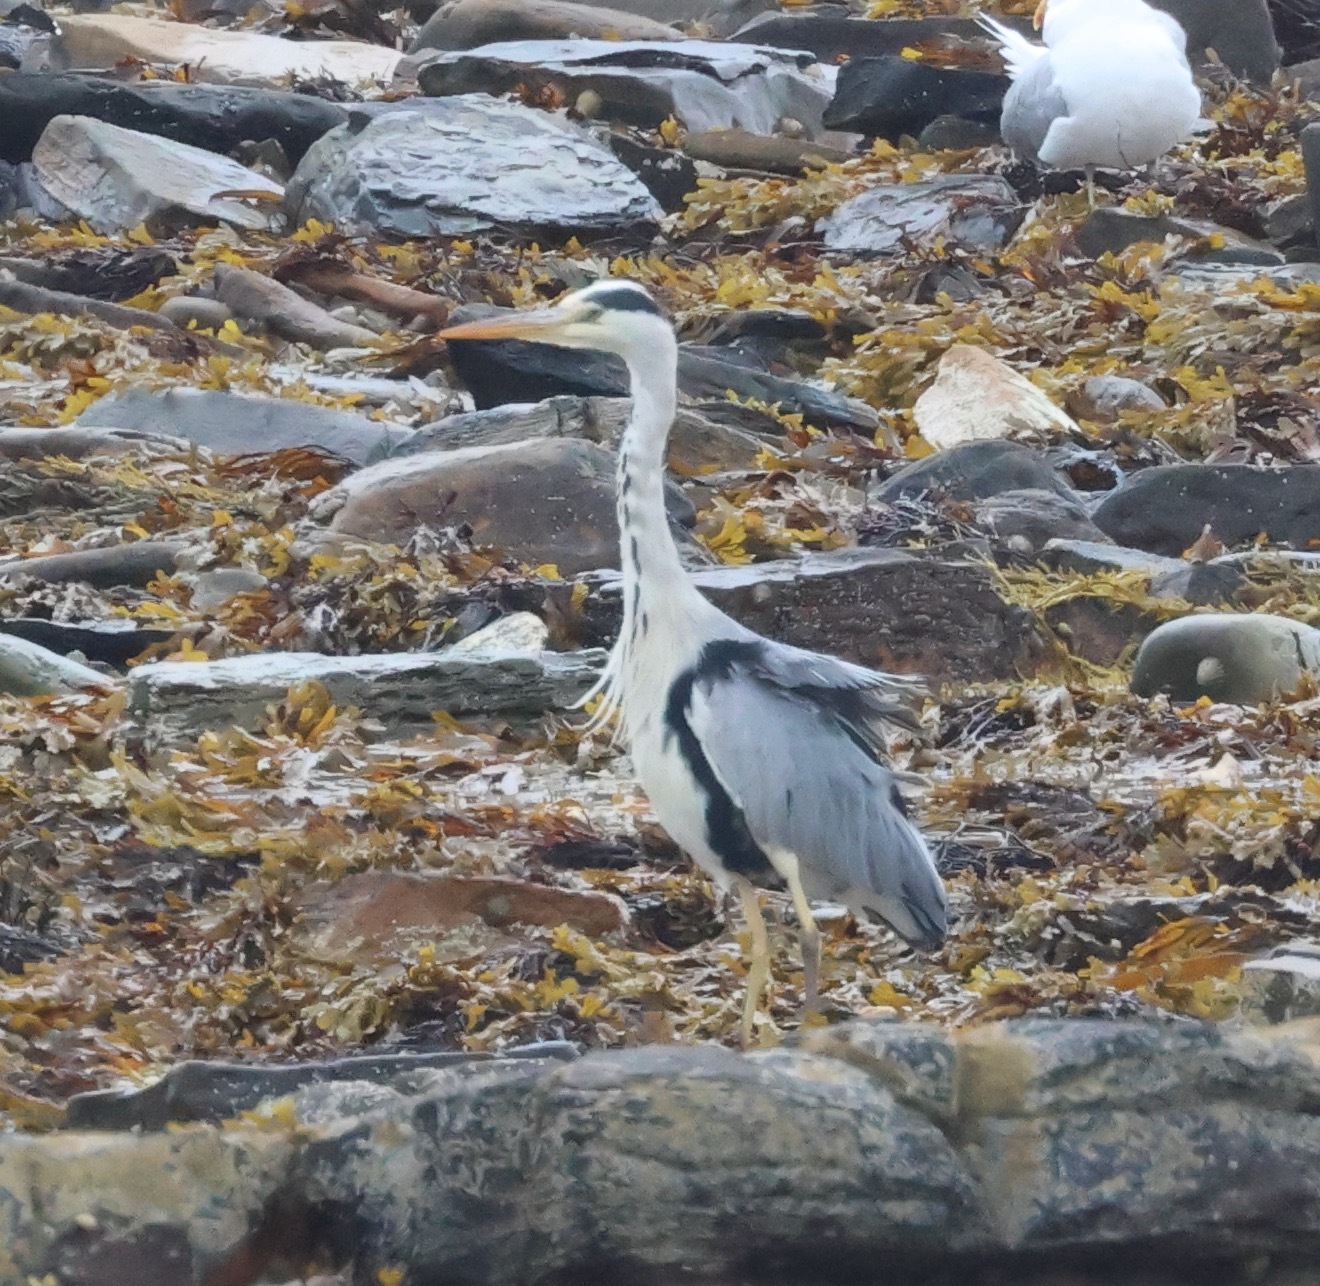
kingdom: Animalia
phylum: Chordata
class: Aves
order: Pelecaniformes
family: Ardeidae
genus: Ardea
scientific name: Ardea cinerea
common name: Grey heron
